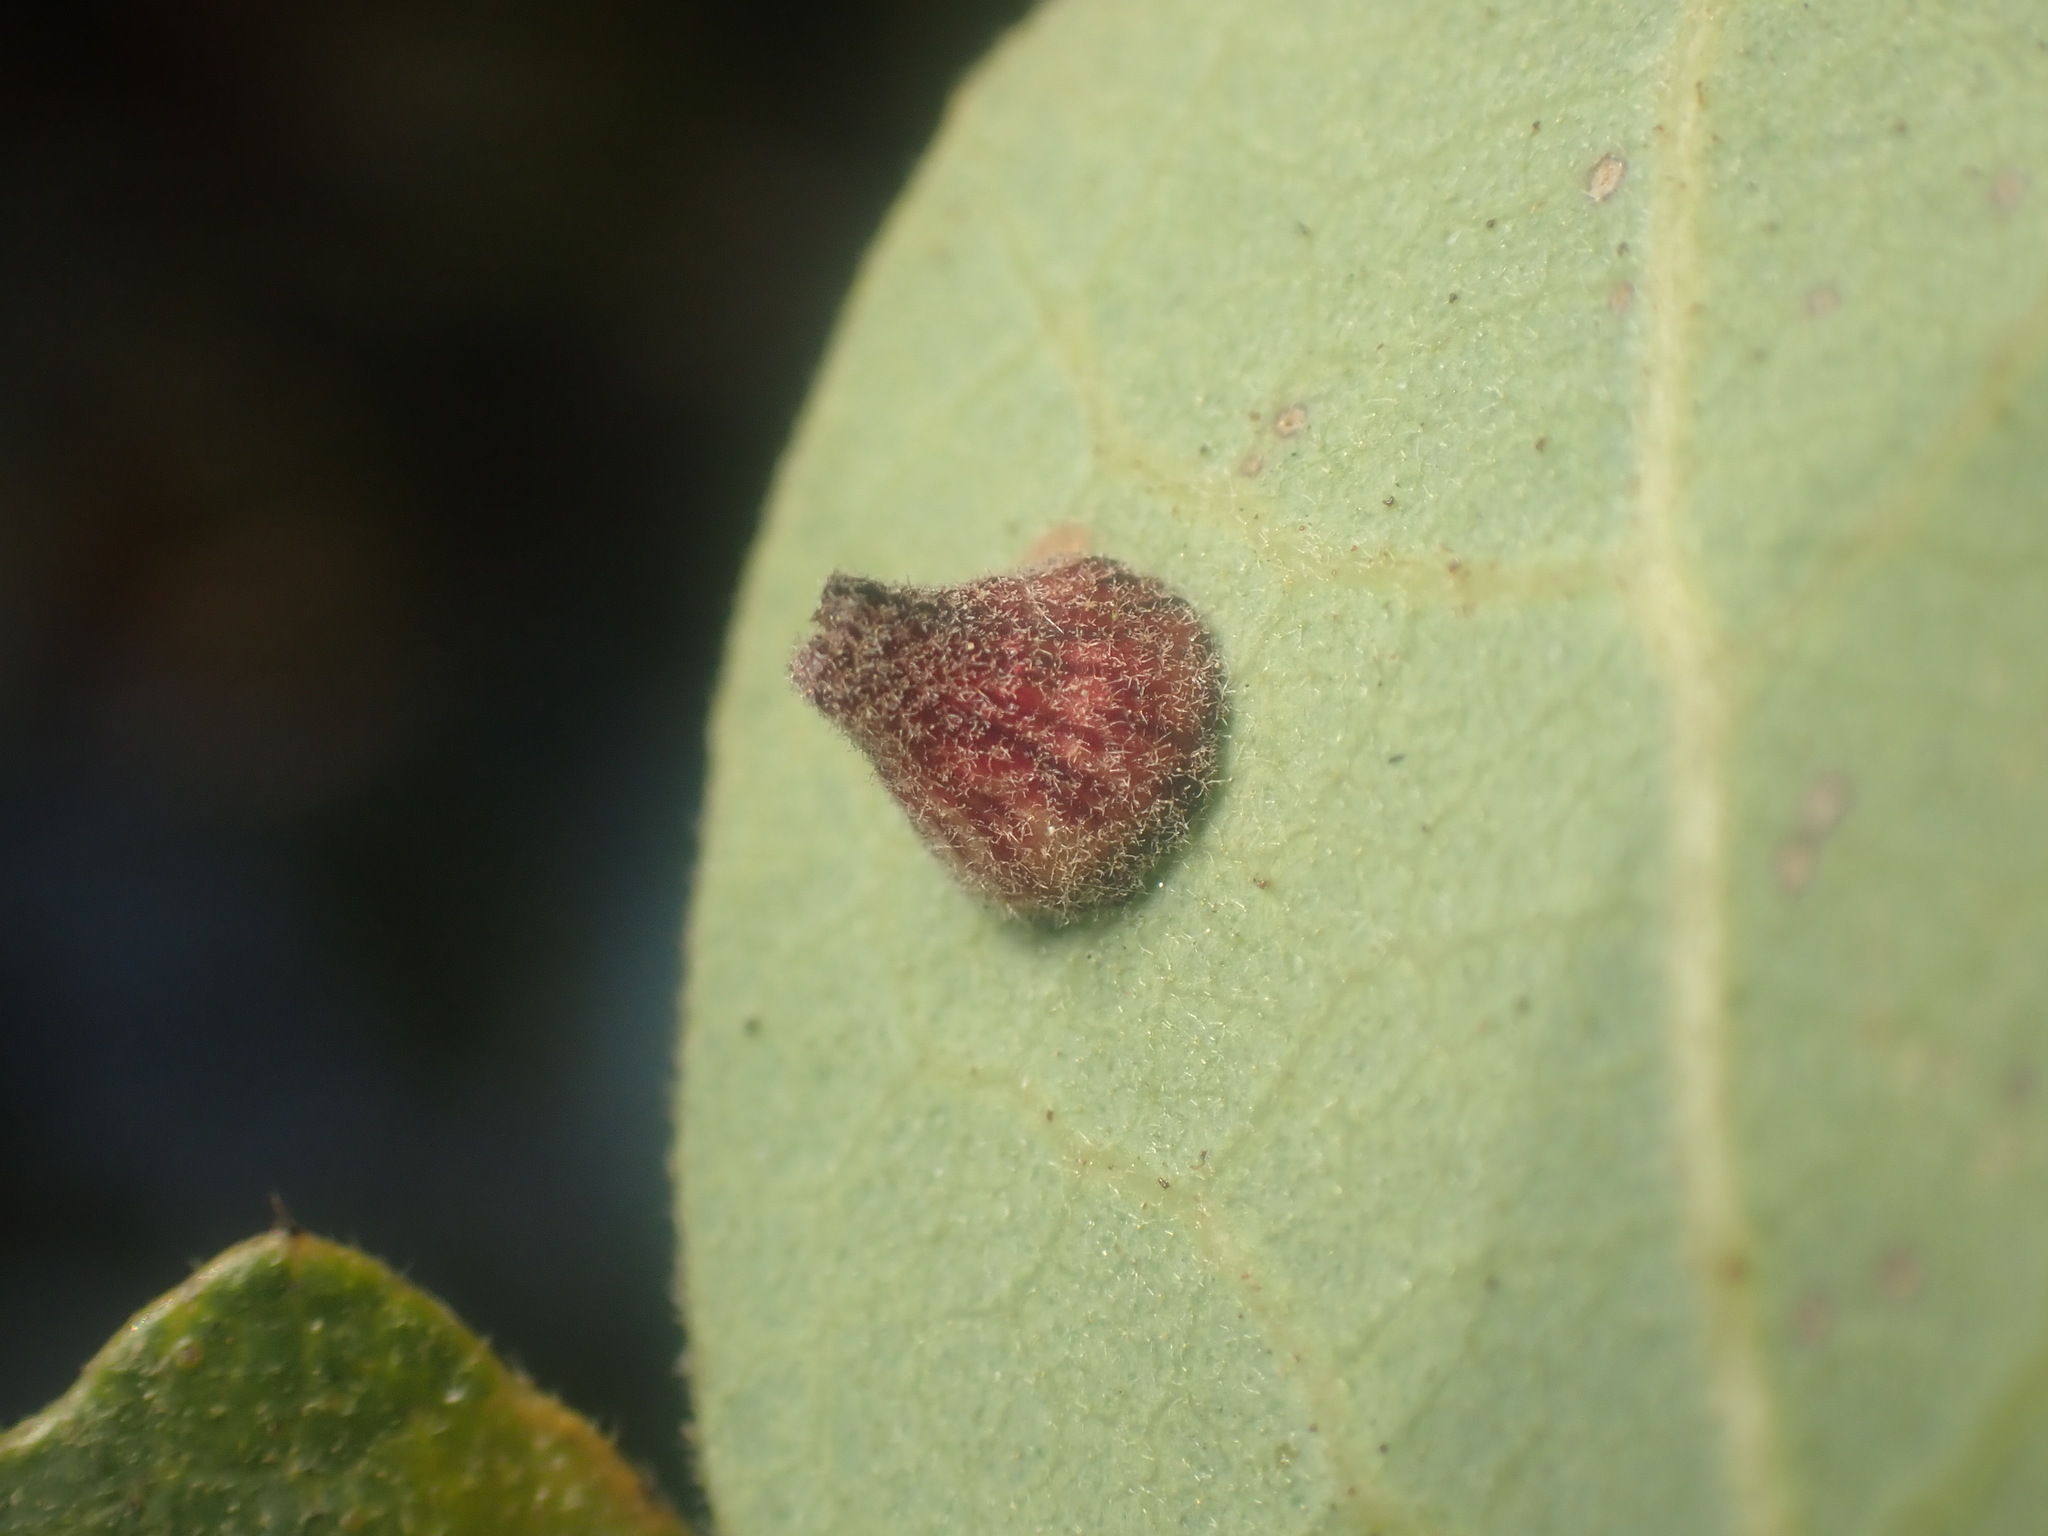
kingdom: Animalia
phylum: Arthropoda
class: Insecta
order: Hymenoptera
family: Cynipidae
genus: Andricus
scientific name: Andricus
